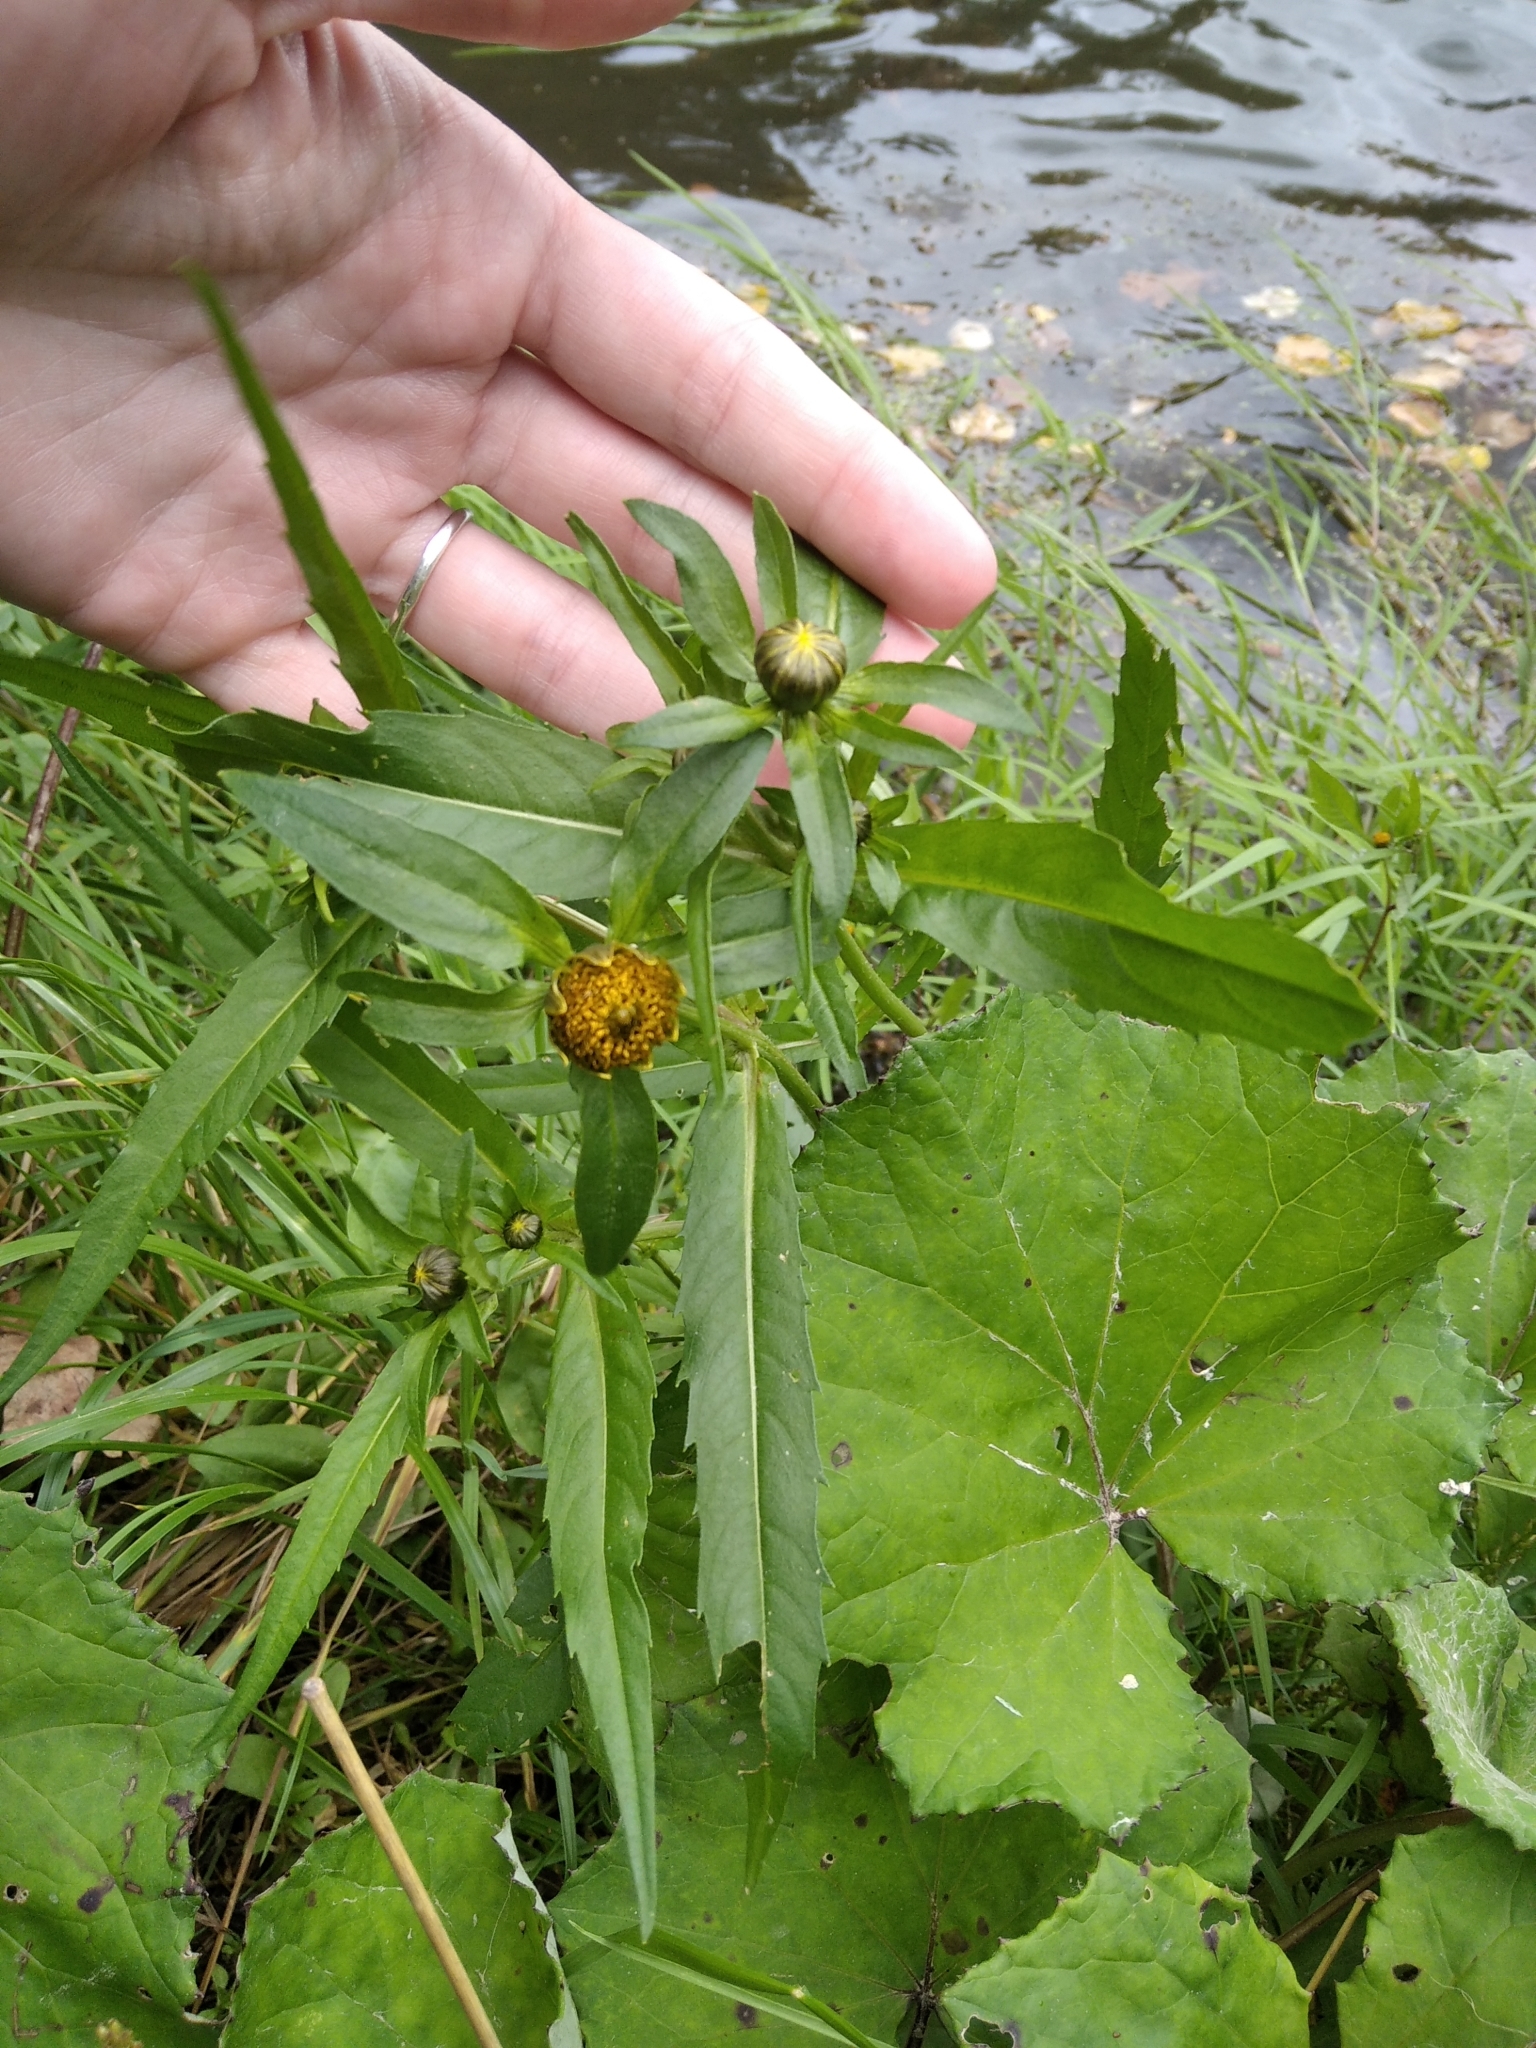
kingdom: Plantae
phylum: Tracheophyta
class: Magnoliopsida
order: Asterales
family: Asteraceae
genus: Bidens
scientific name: Bidens cernua
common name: Nodding bur-marigold
